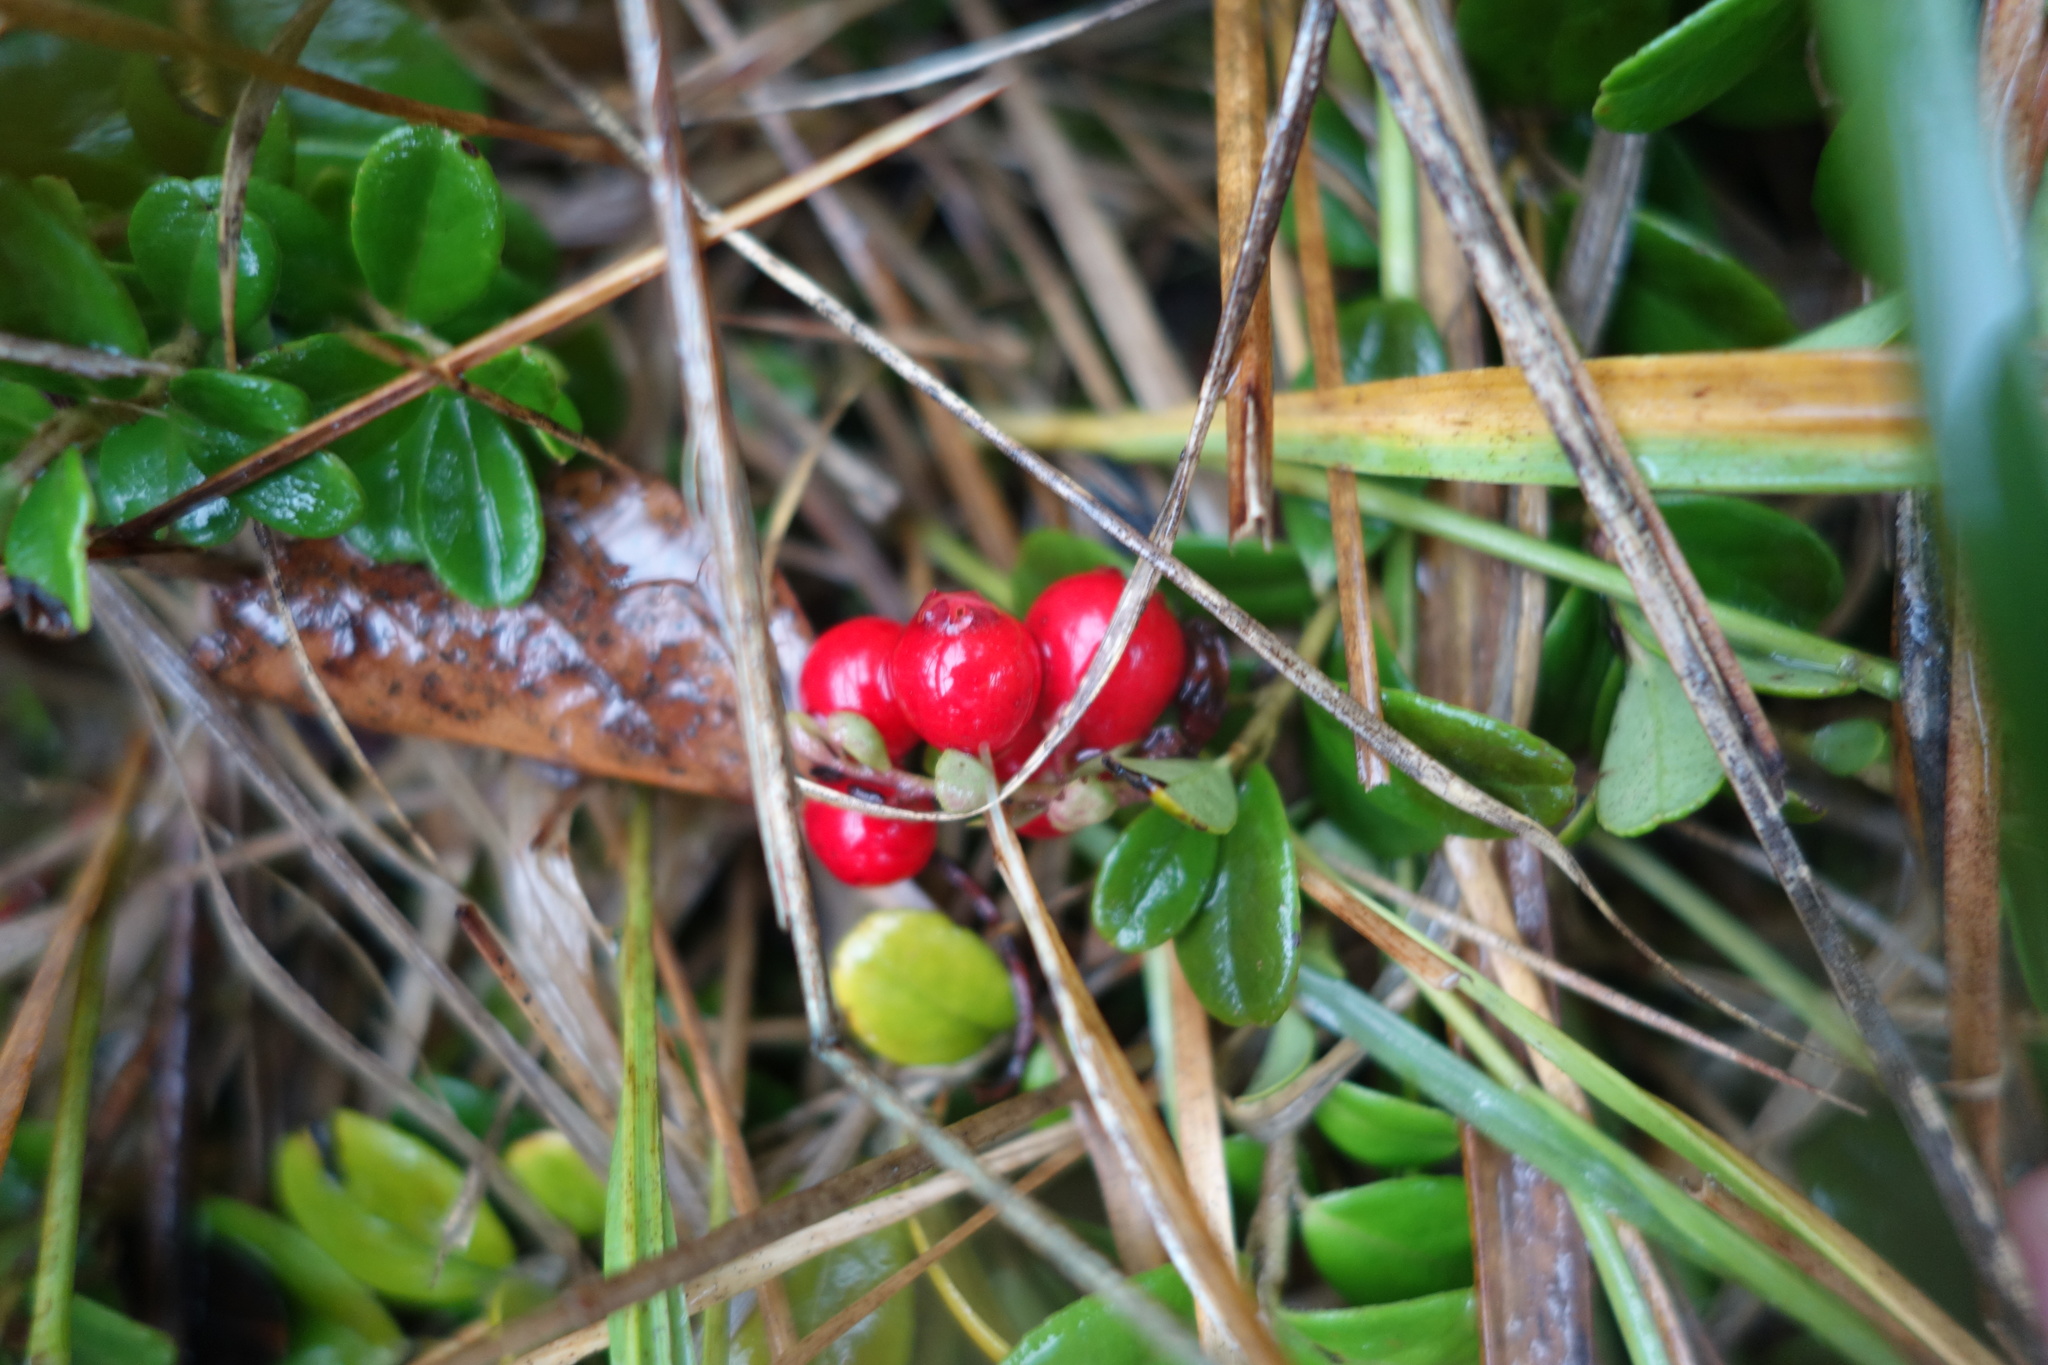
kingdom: Plantae
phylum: Tracheophyta
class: Magnoliopsida
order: Ericales
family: Ericaceae
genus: Vaccinium
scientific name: Vaccinium vitis-idaea
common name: Cowberry
